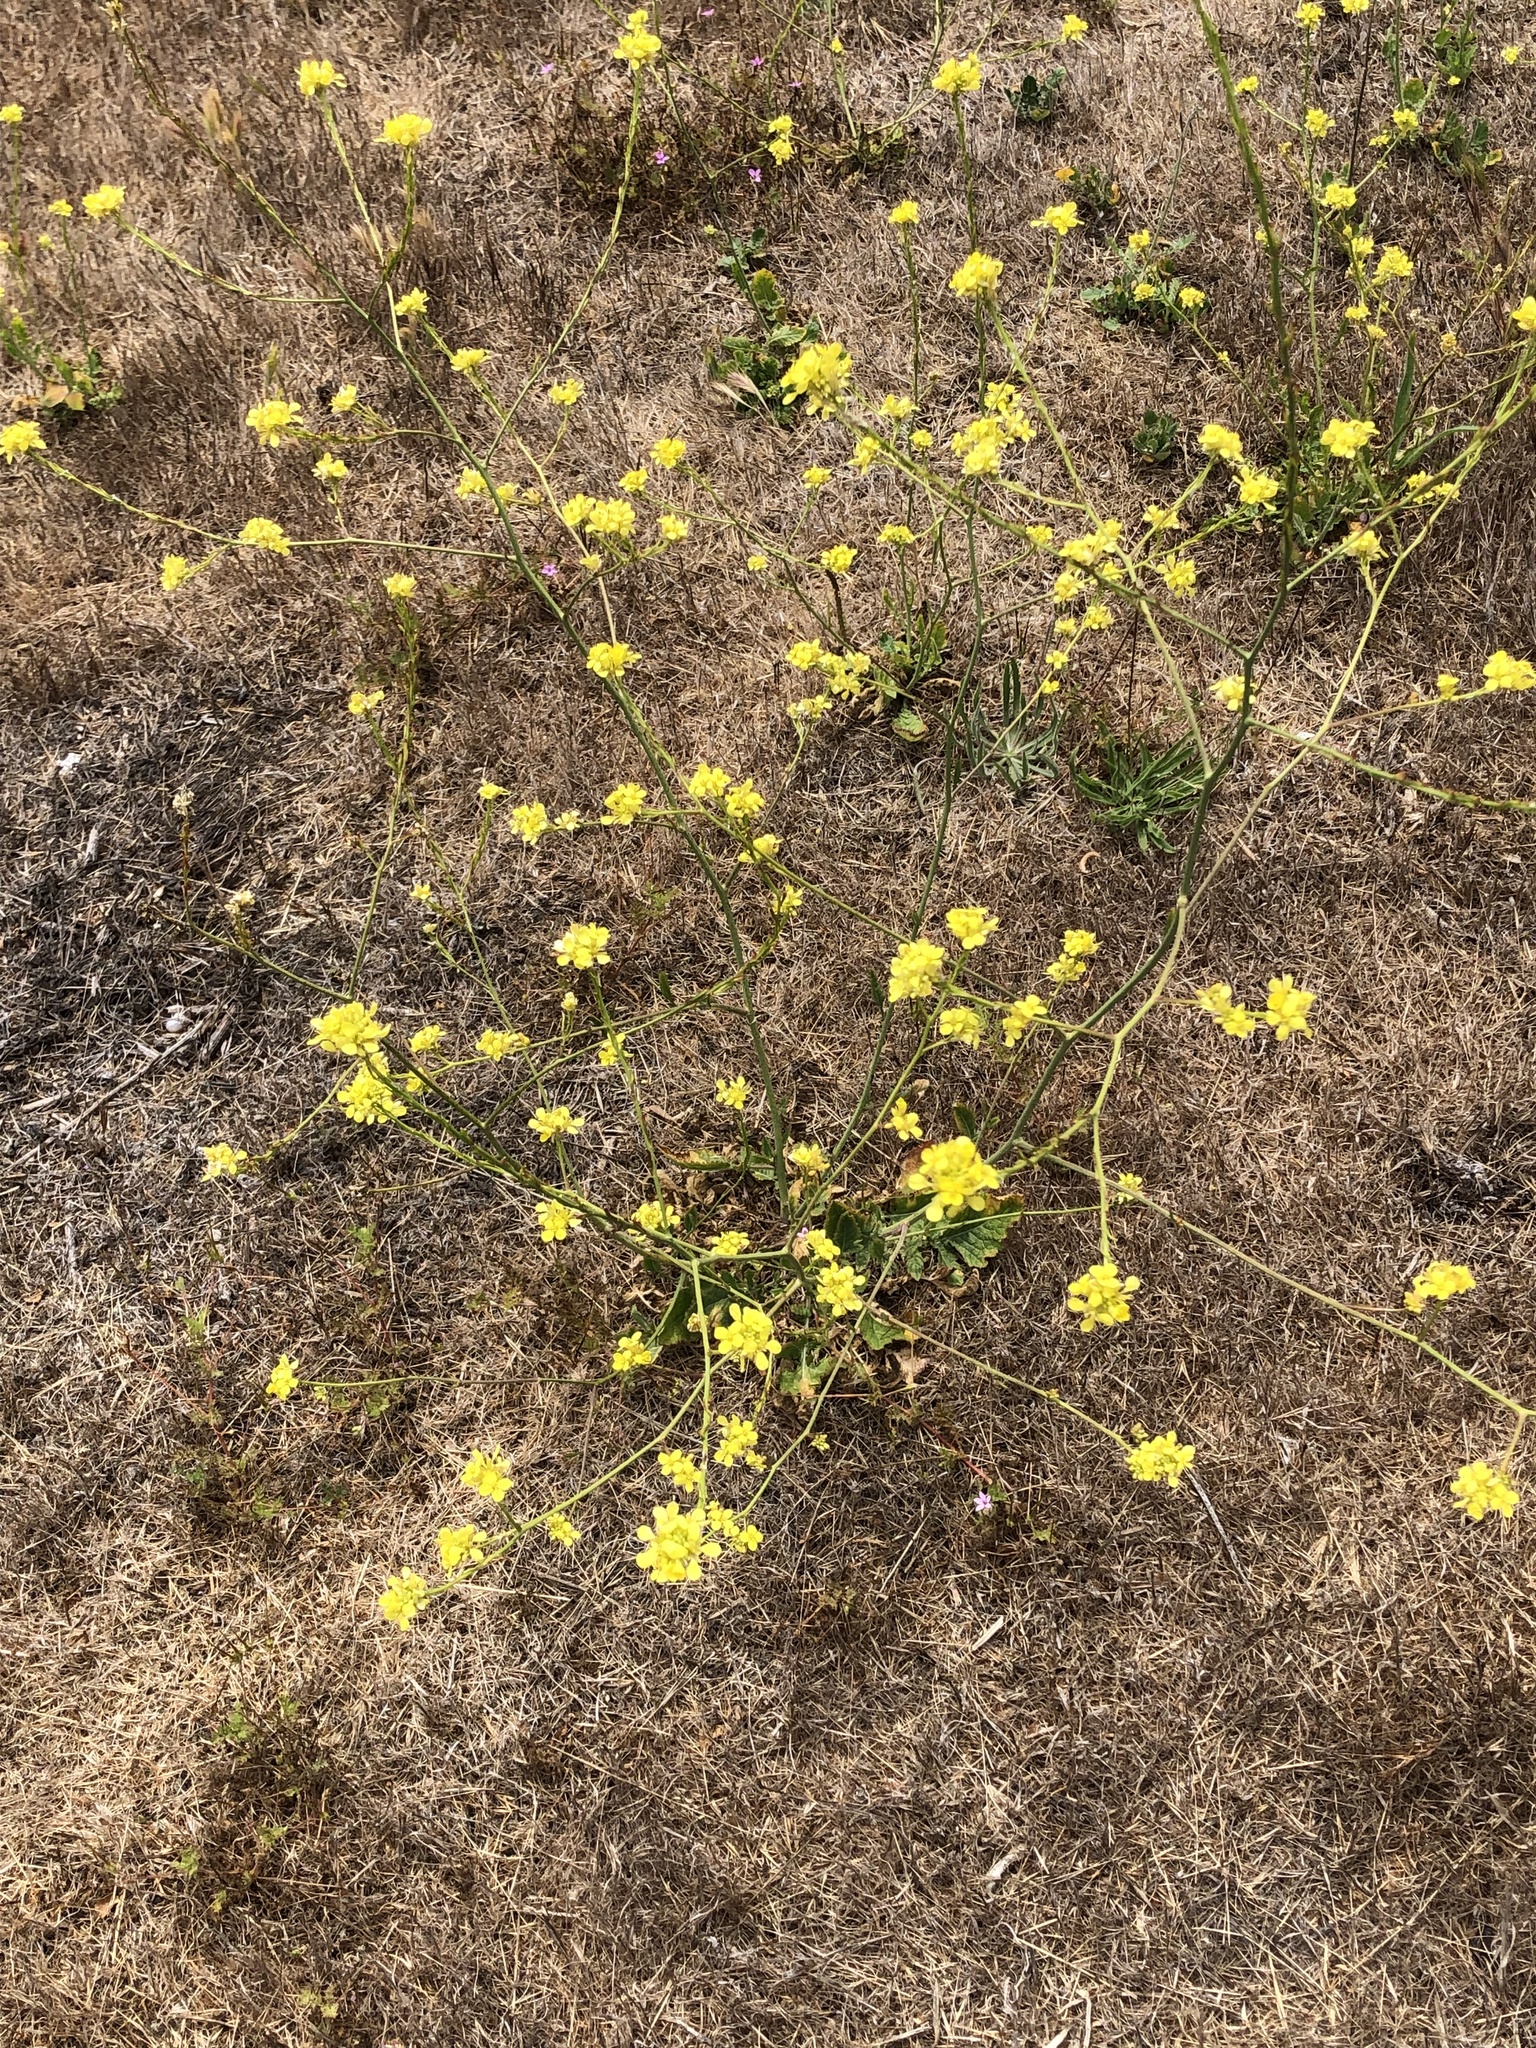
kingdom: Plantae
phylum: Tracheophyta
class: Magnoliopsida
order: Brassicales
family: Brassicaceae
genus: Hirschfeldia
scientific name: Hirschfeldia incana
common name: Hoary mustard
